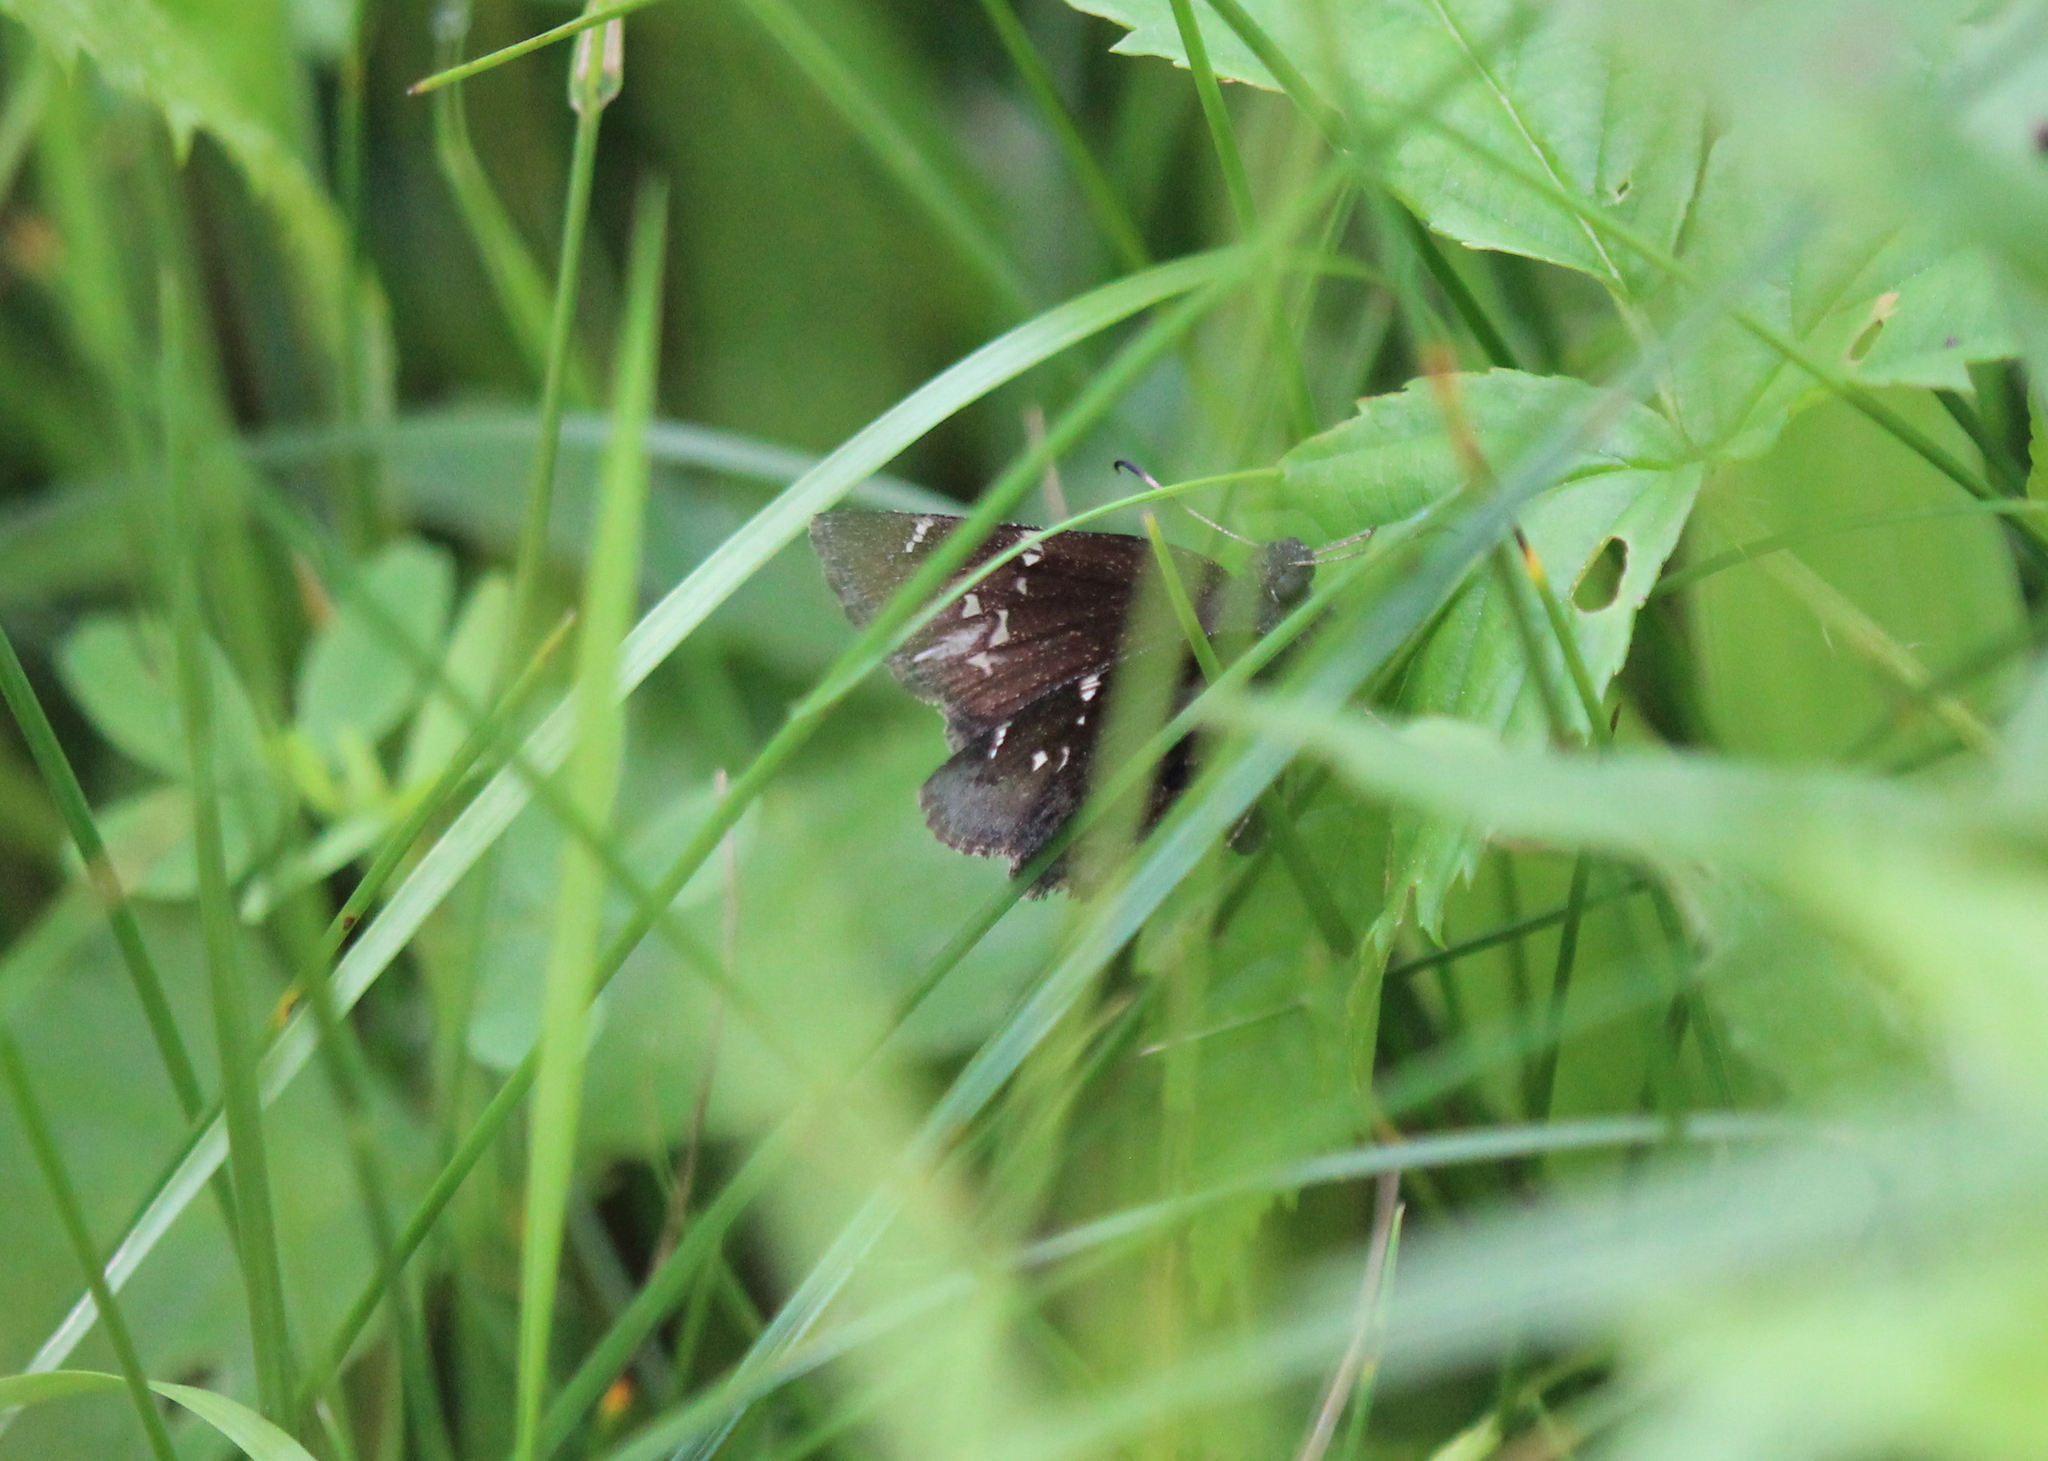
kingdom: Animalia
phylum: Arthropoda
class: Insecta
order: Lepidoptera
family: Hesperiidae
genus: Thorybes
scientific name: Thorybes pylades
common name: Northern cloudywing
